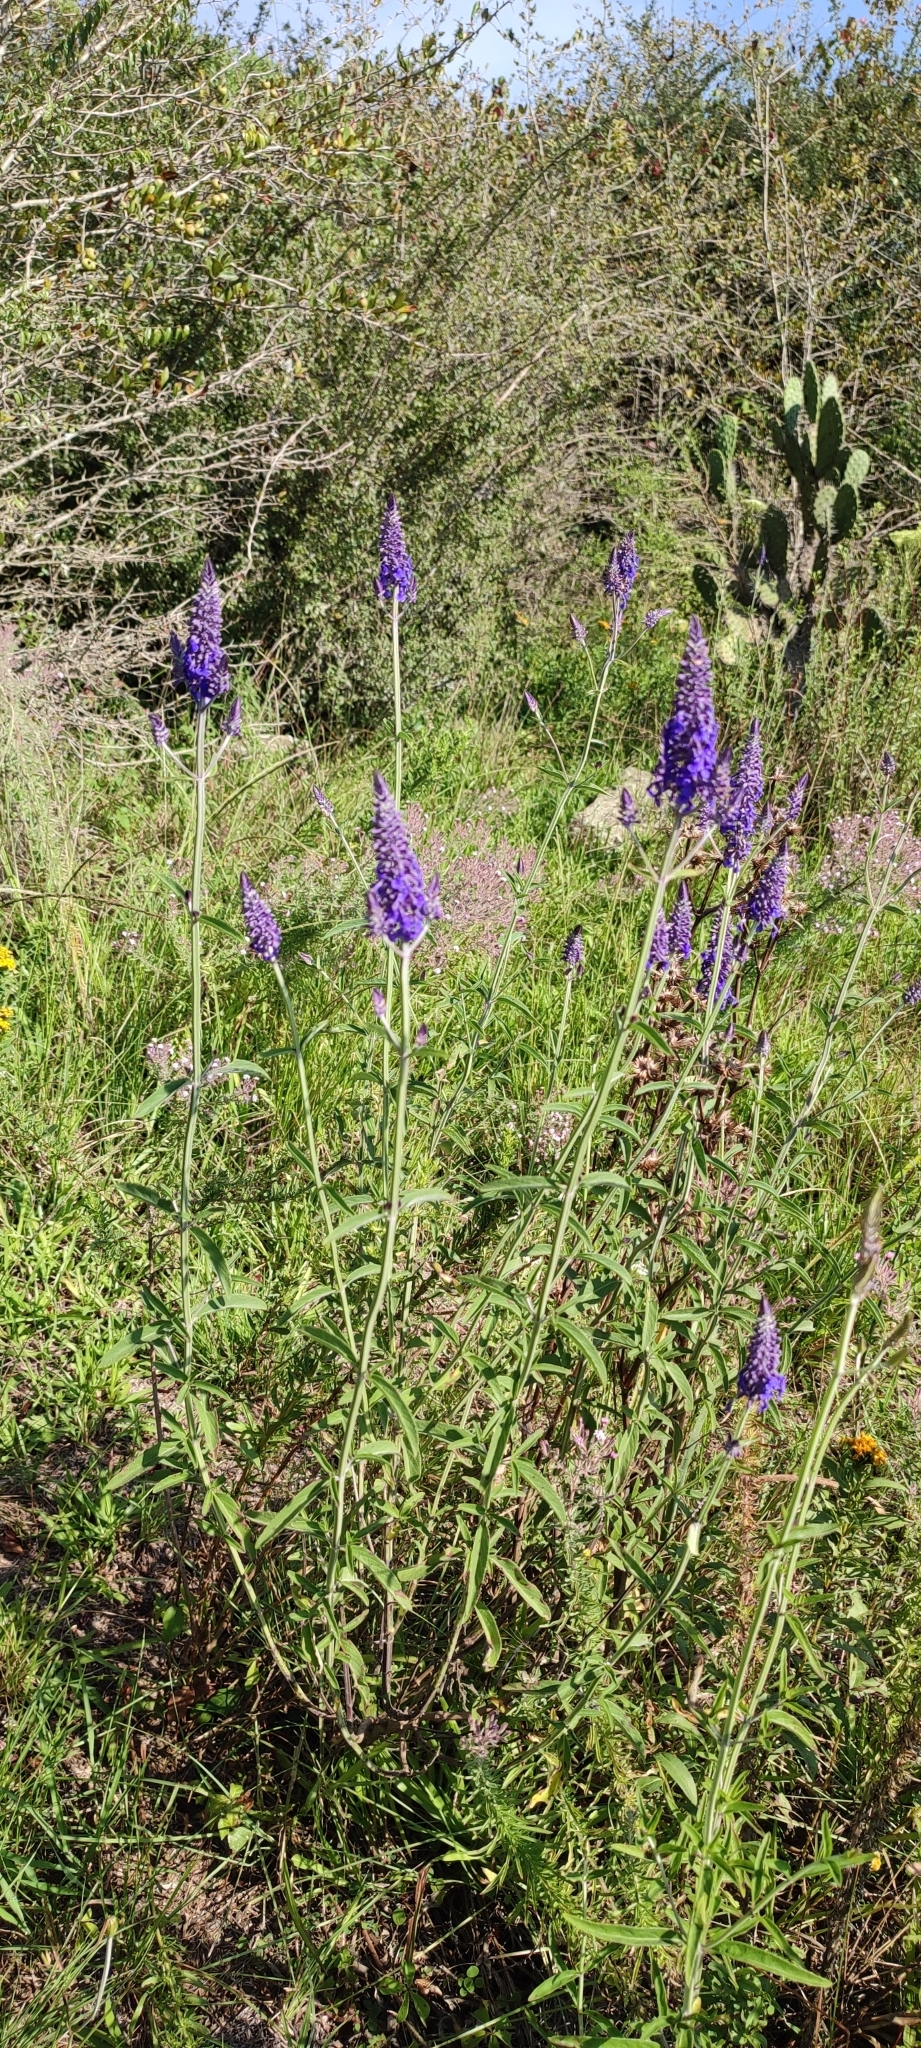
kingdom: Plantae
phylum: Tracheophyta
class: Magnoliopsida
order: Lamiales
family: Lamiaceae
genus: Salvia
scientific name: Salvia lavanduloides
